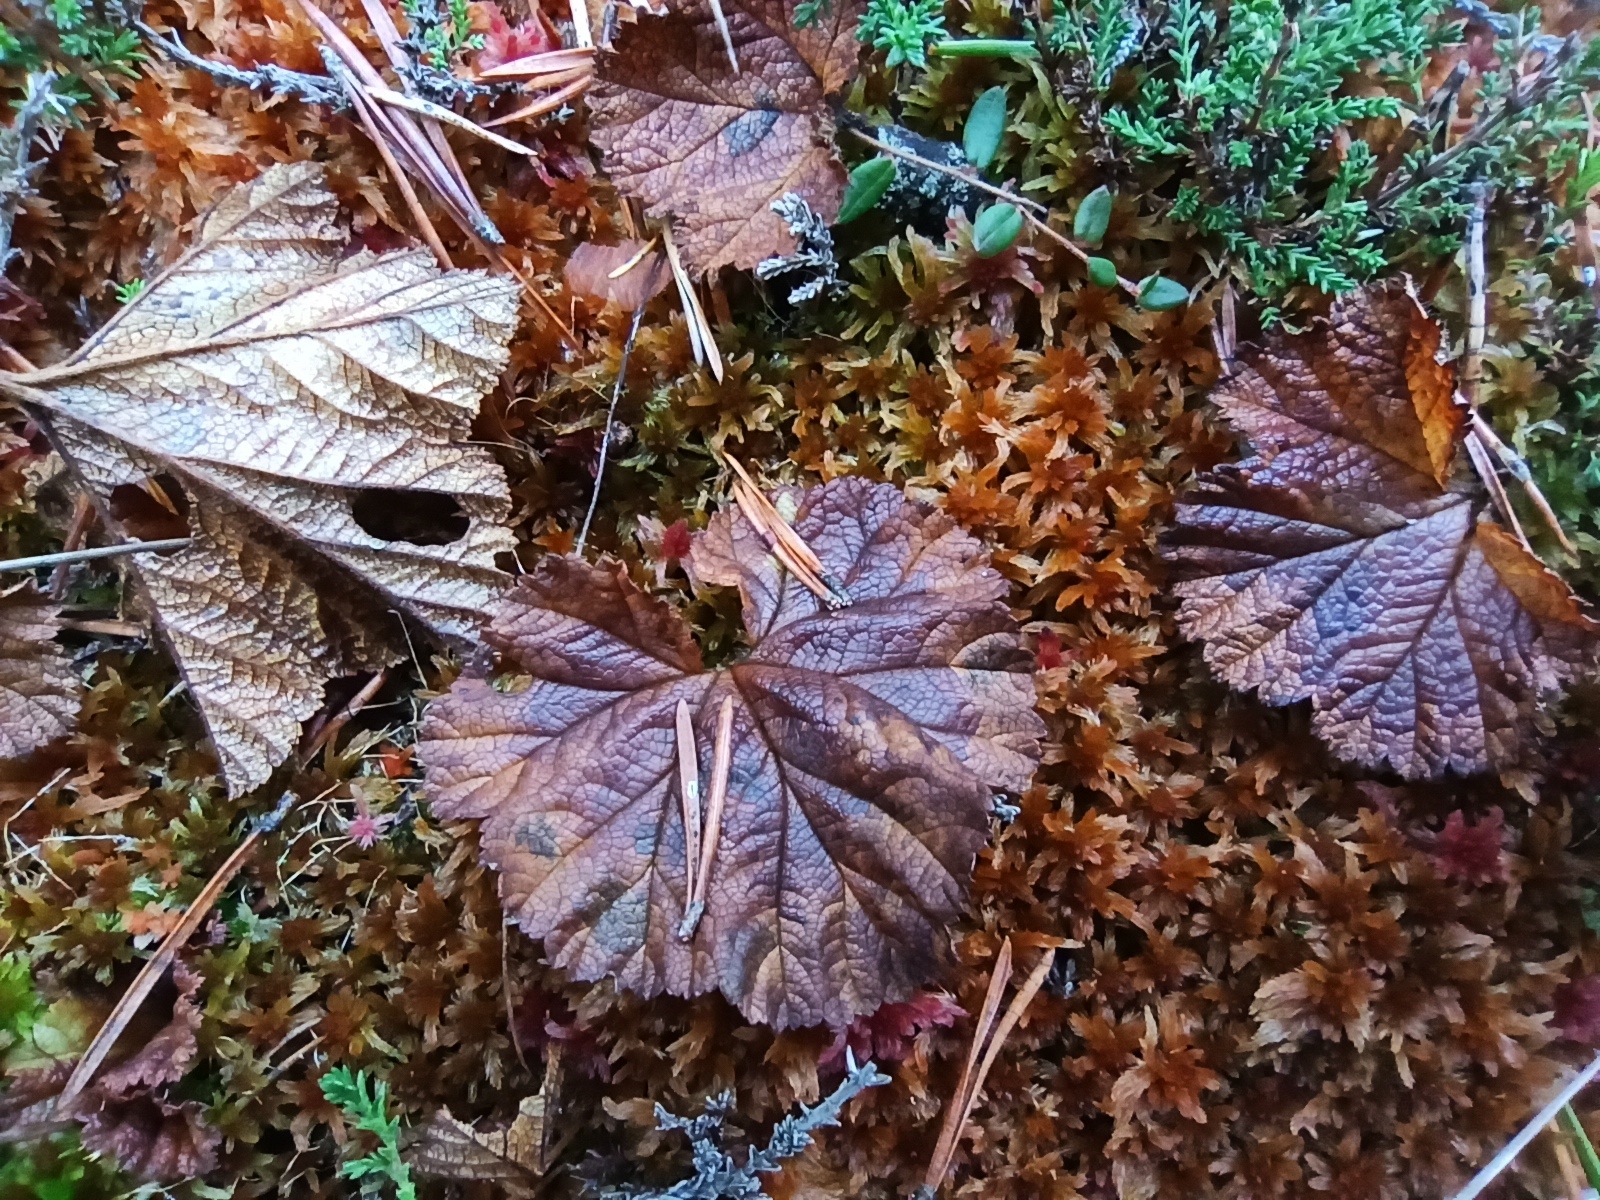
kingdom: Plantae
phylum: Tracheophyta
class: Magnoliopsida
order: Rosales
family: Rosaceae
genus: Rubus
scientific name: Rubus chamaemorus
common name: Cloudberry
